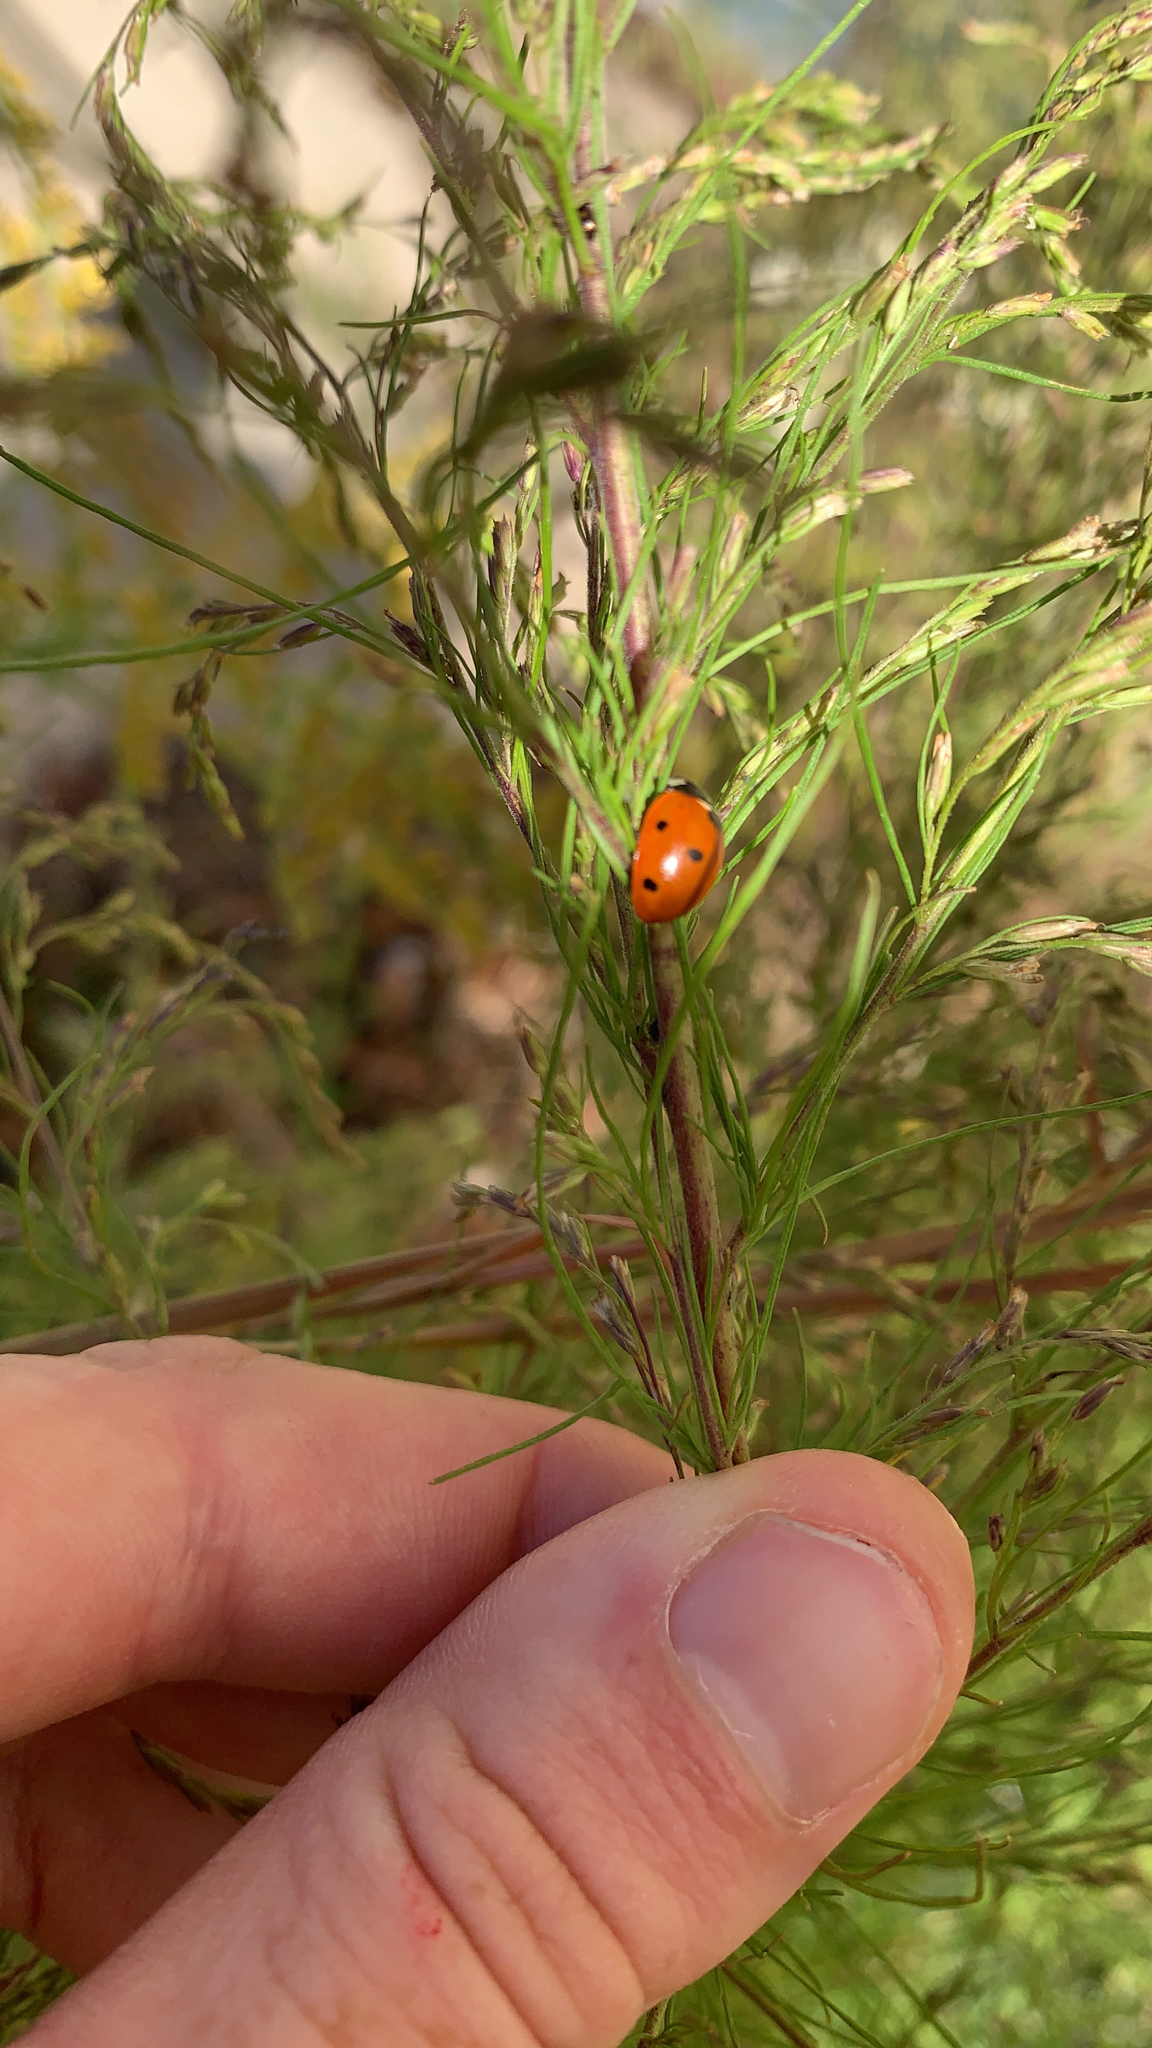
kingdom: Animalia
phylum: Arthropoda
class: Insecta
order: Coleoptera
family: Coccinellidae
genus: Coccinella
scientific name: Coccinella septempunctata
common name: Sevenspotted lady beetle
